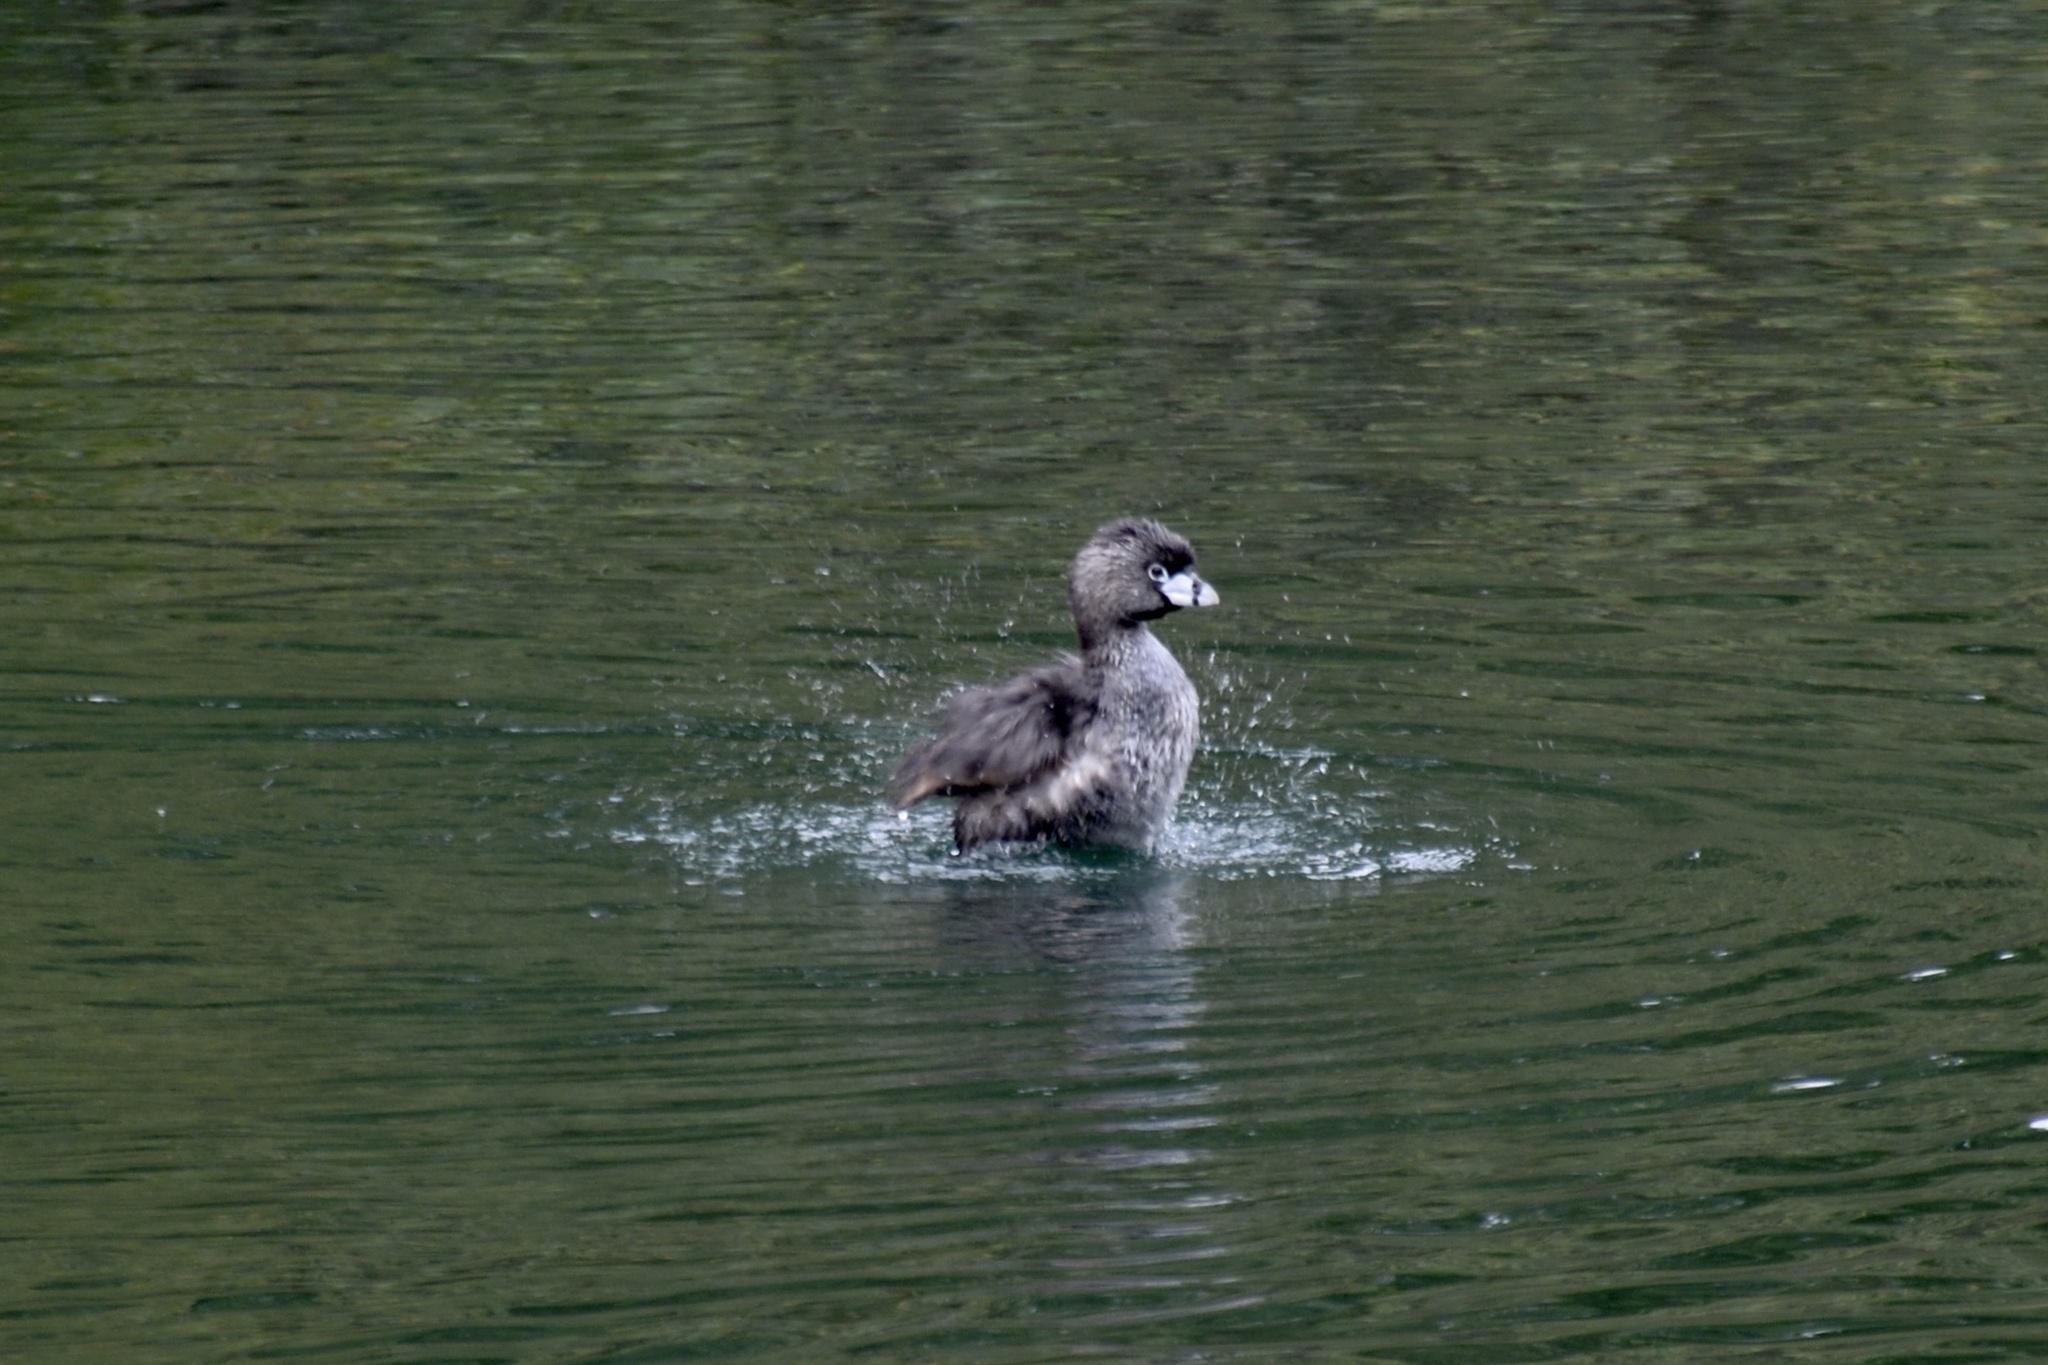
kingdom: Animalia
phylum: Chordata
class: Aves
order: Podicipediformes
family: Podicipedidae
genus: Podilymbus
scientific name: Podilymbus podiceps
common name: Pied-billed grebe
